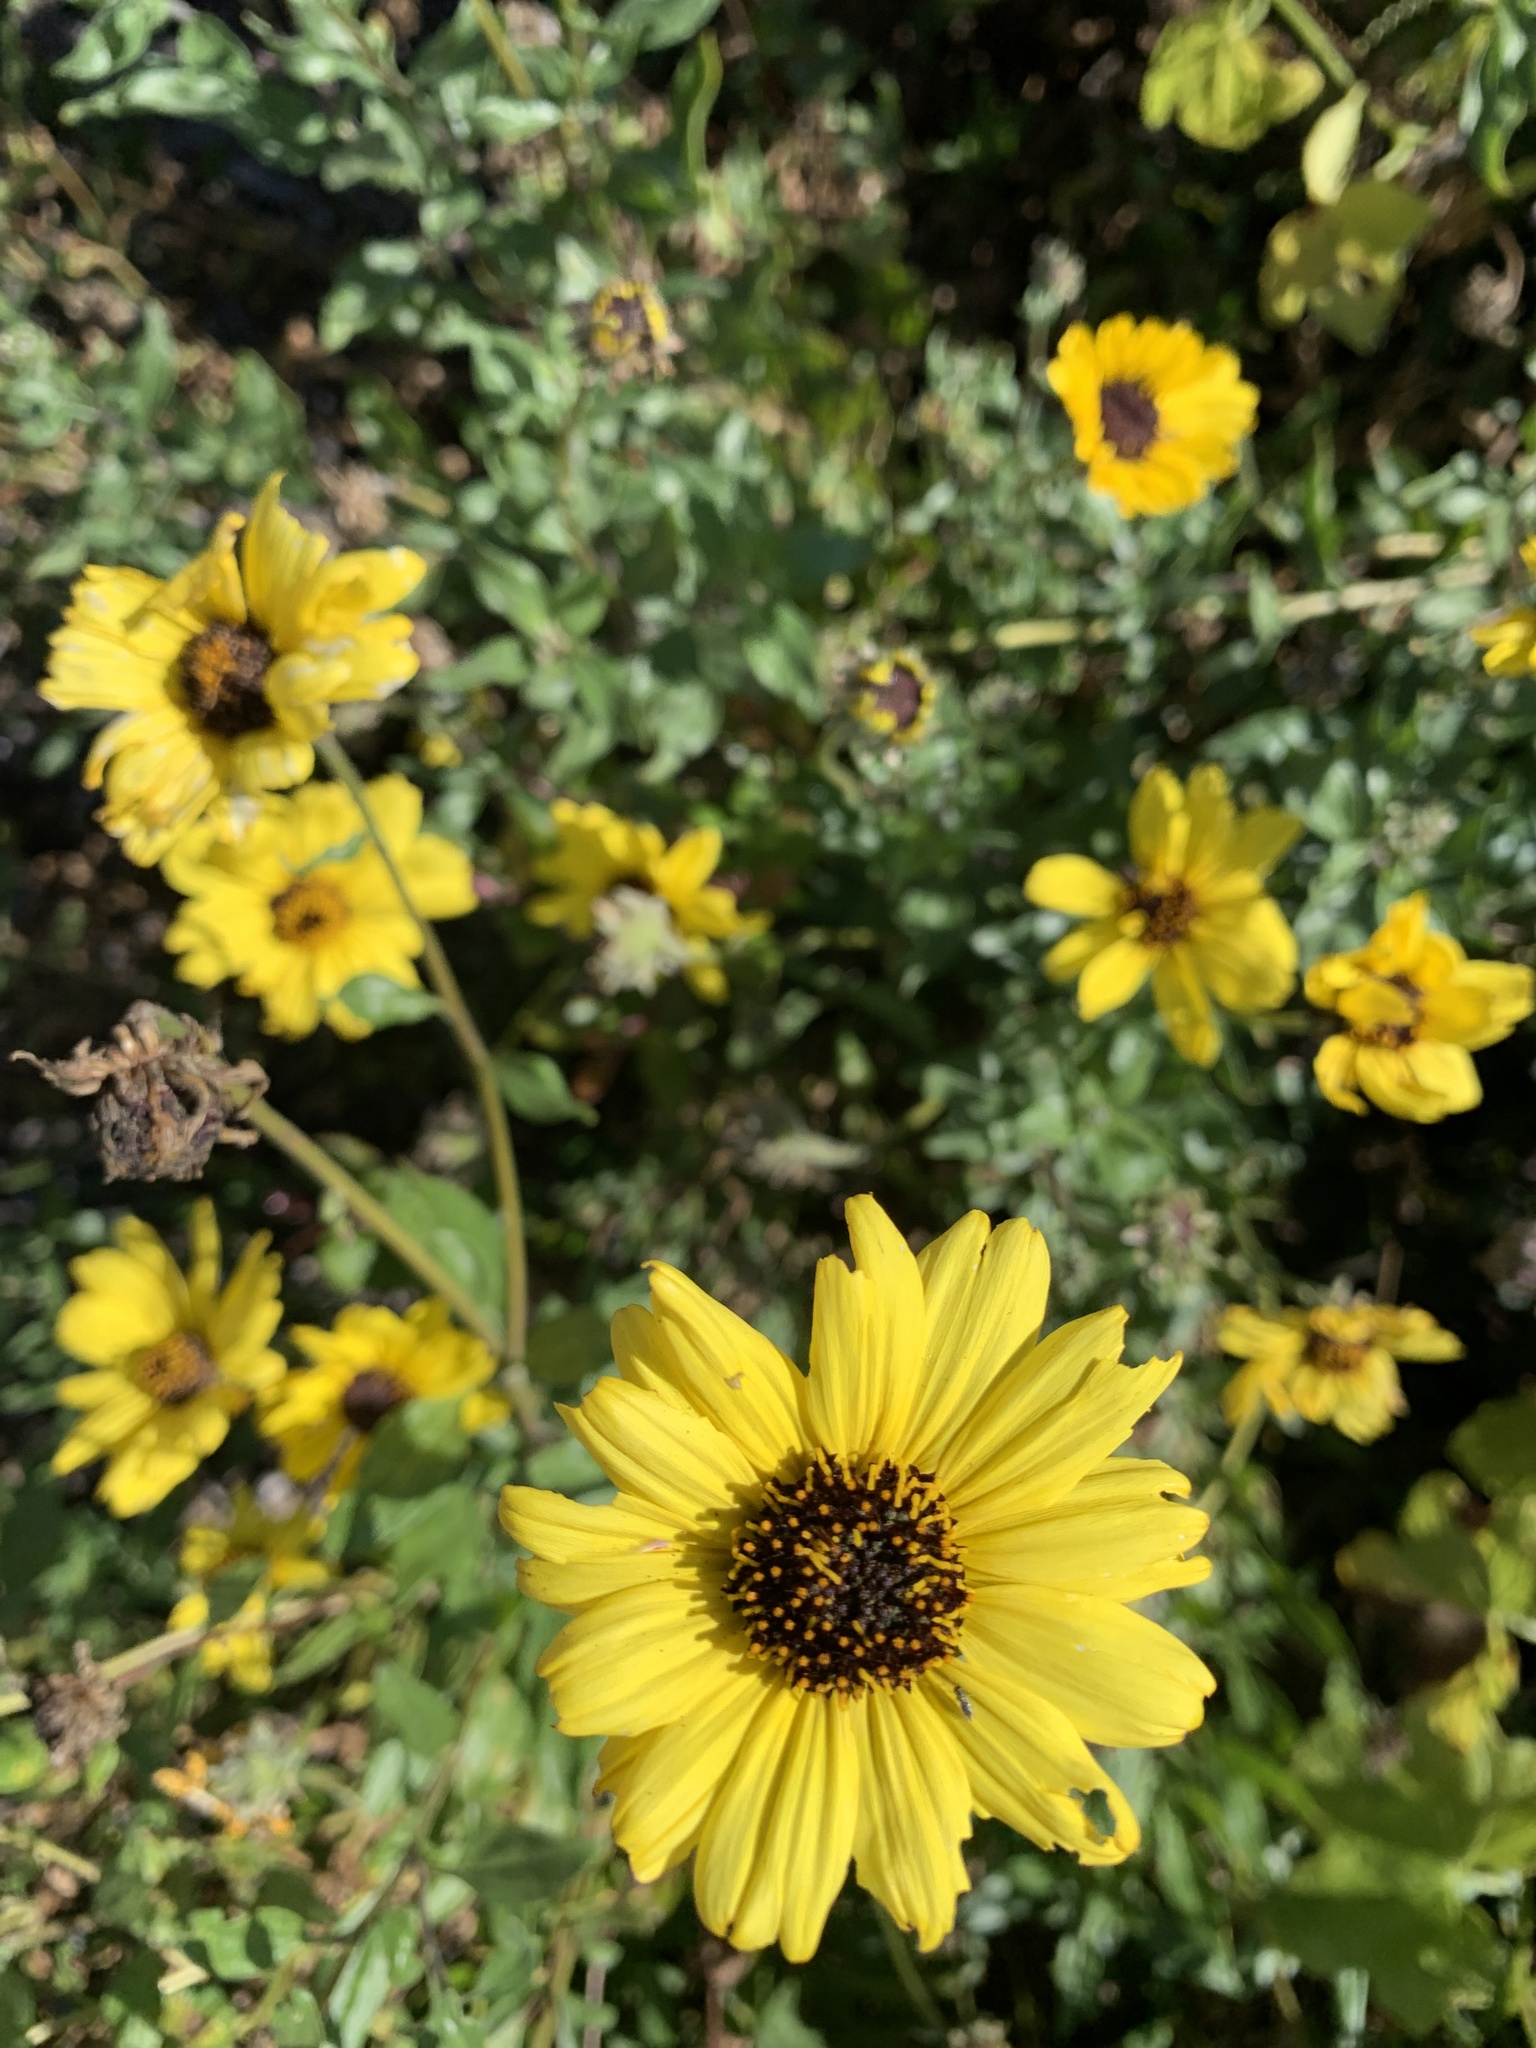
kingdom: Plantae
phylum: Tracheophyta
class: Magnoliopsida
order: Asterales
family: Asteraceae
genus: Encelia
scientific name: Encelia californica
